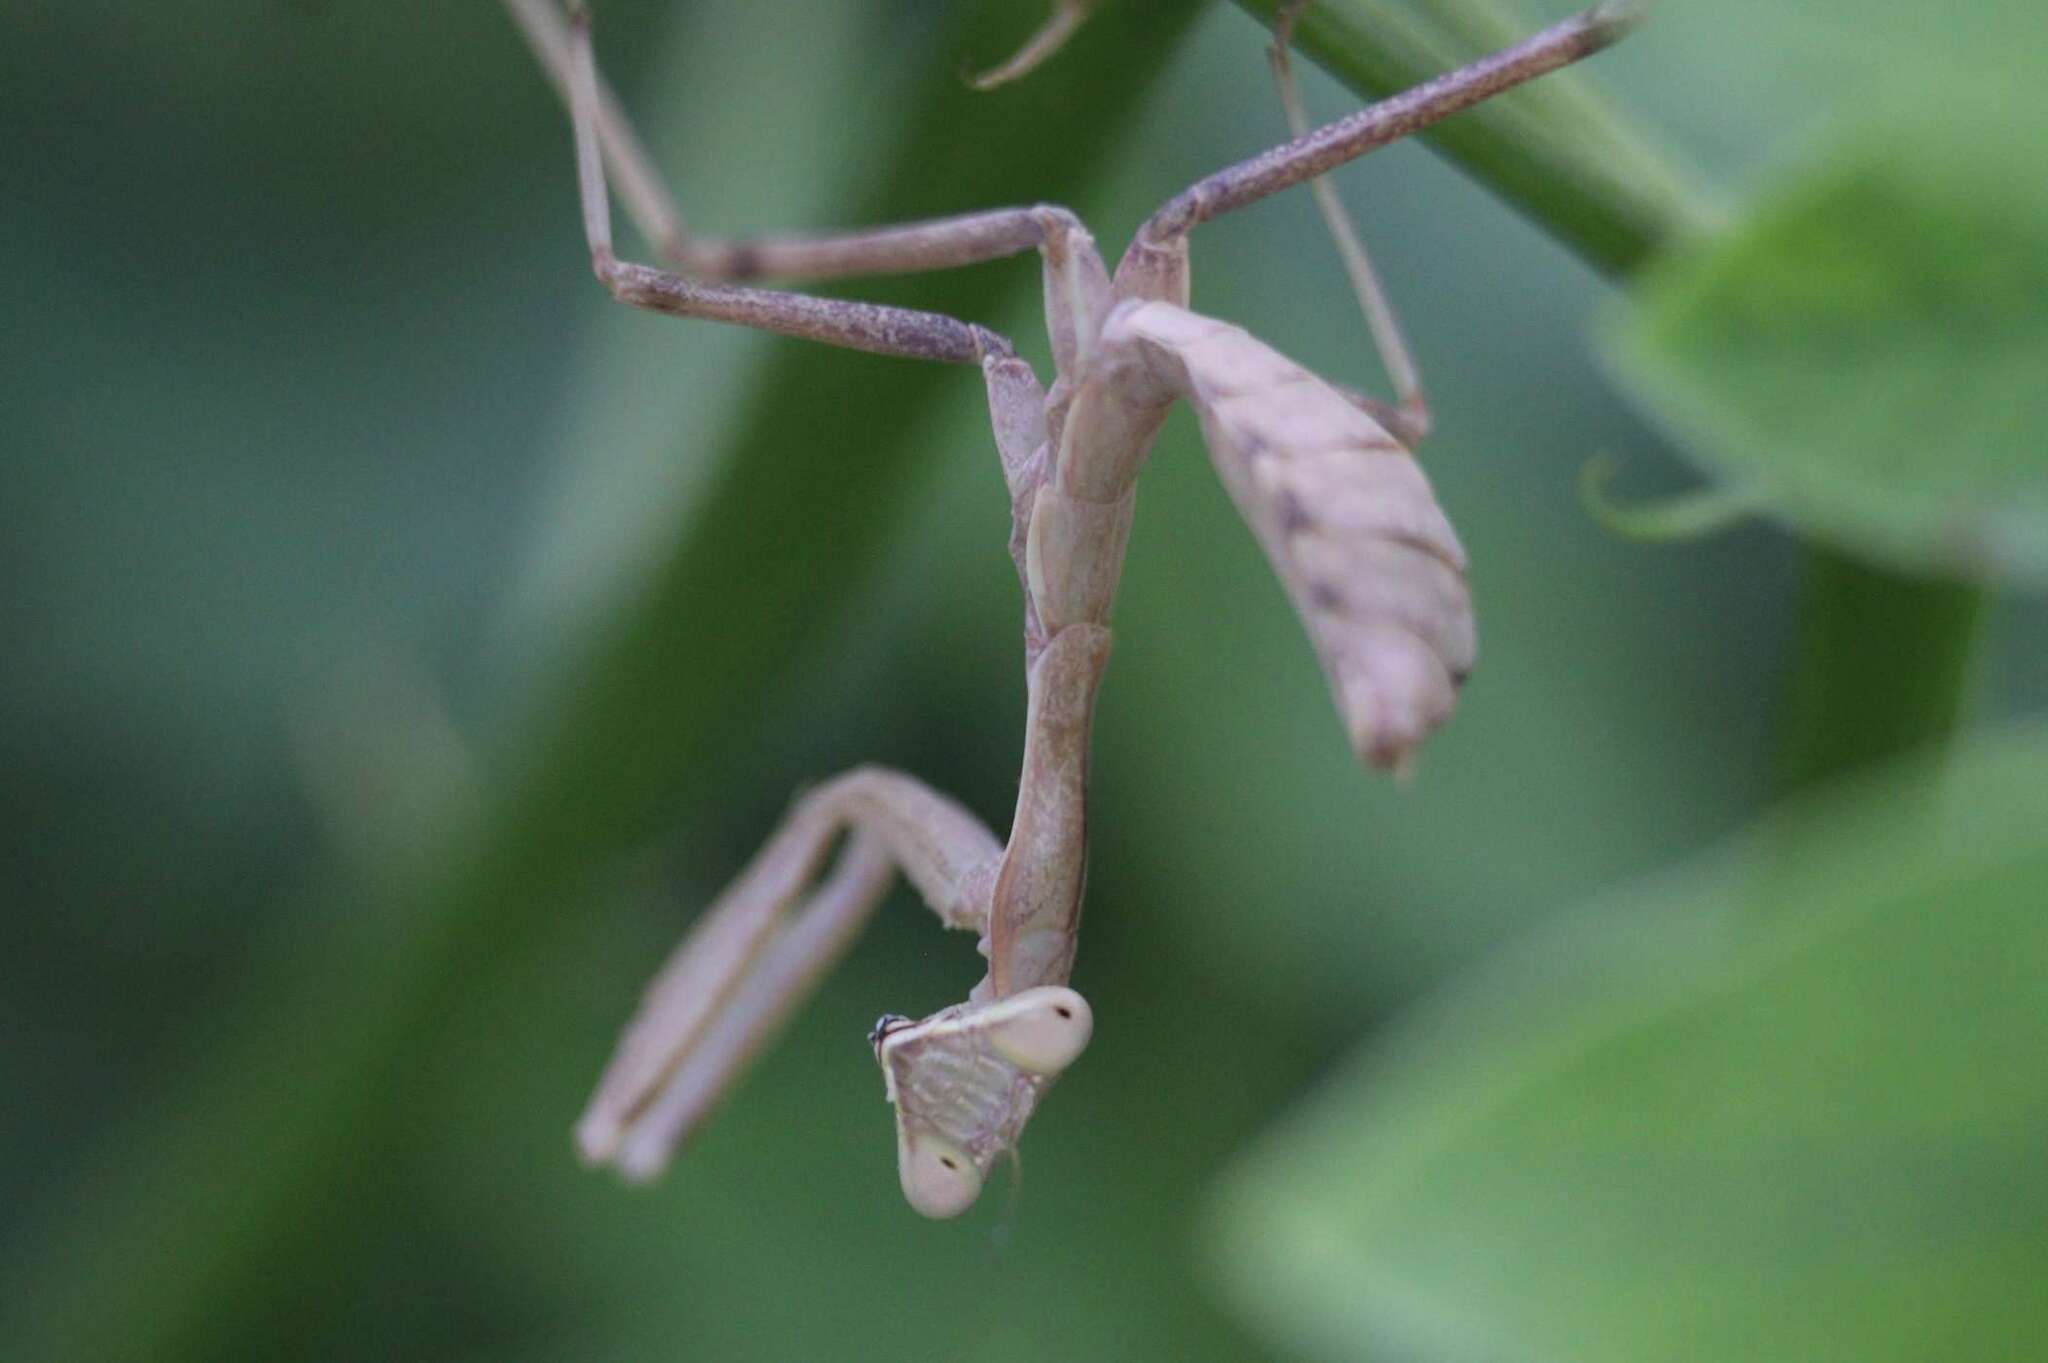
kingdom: Animalia
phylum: Arthropoda
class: Insecta
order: Mantodea
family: Mantidae
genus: Sphodromantis
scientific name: Sphodromantis viridis
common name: Giant african mantis
